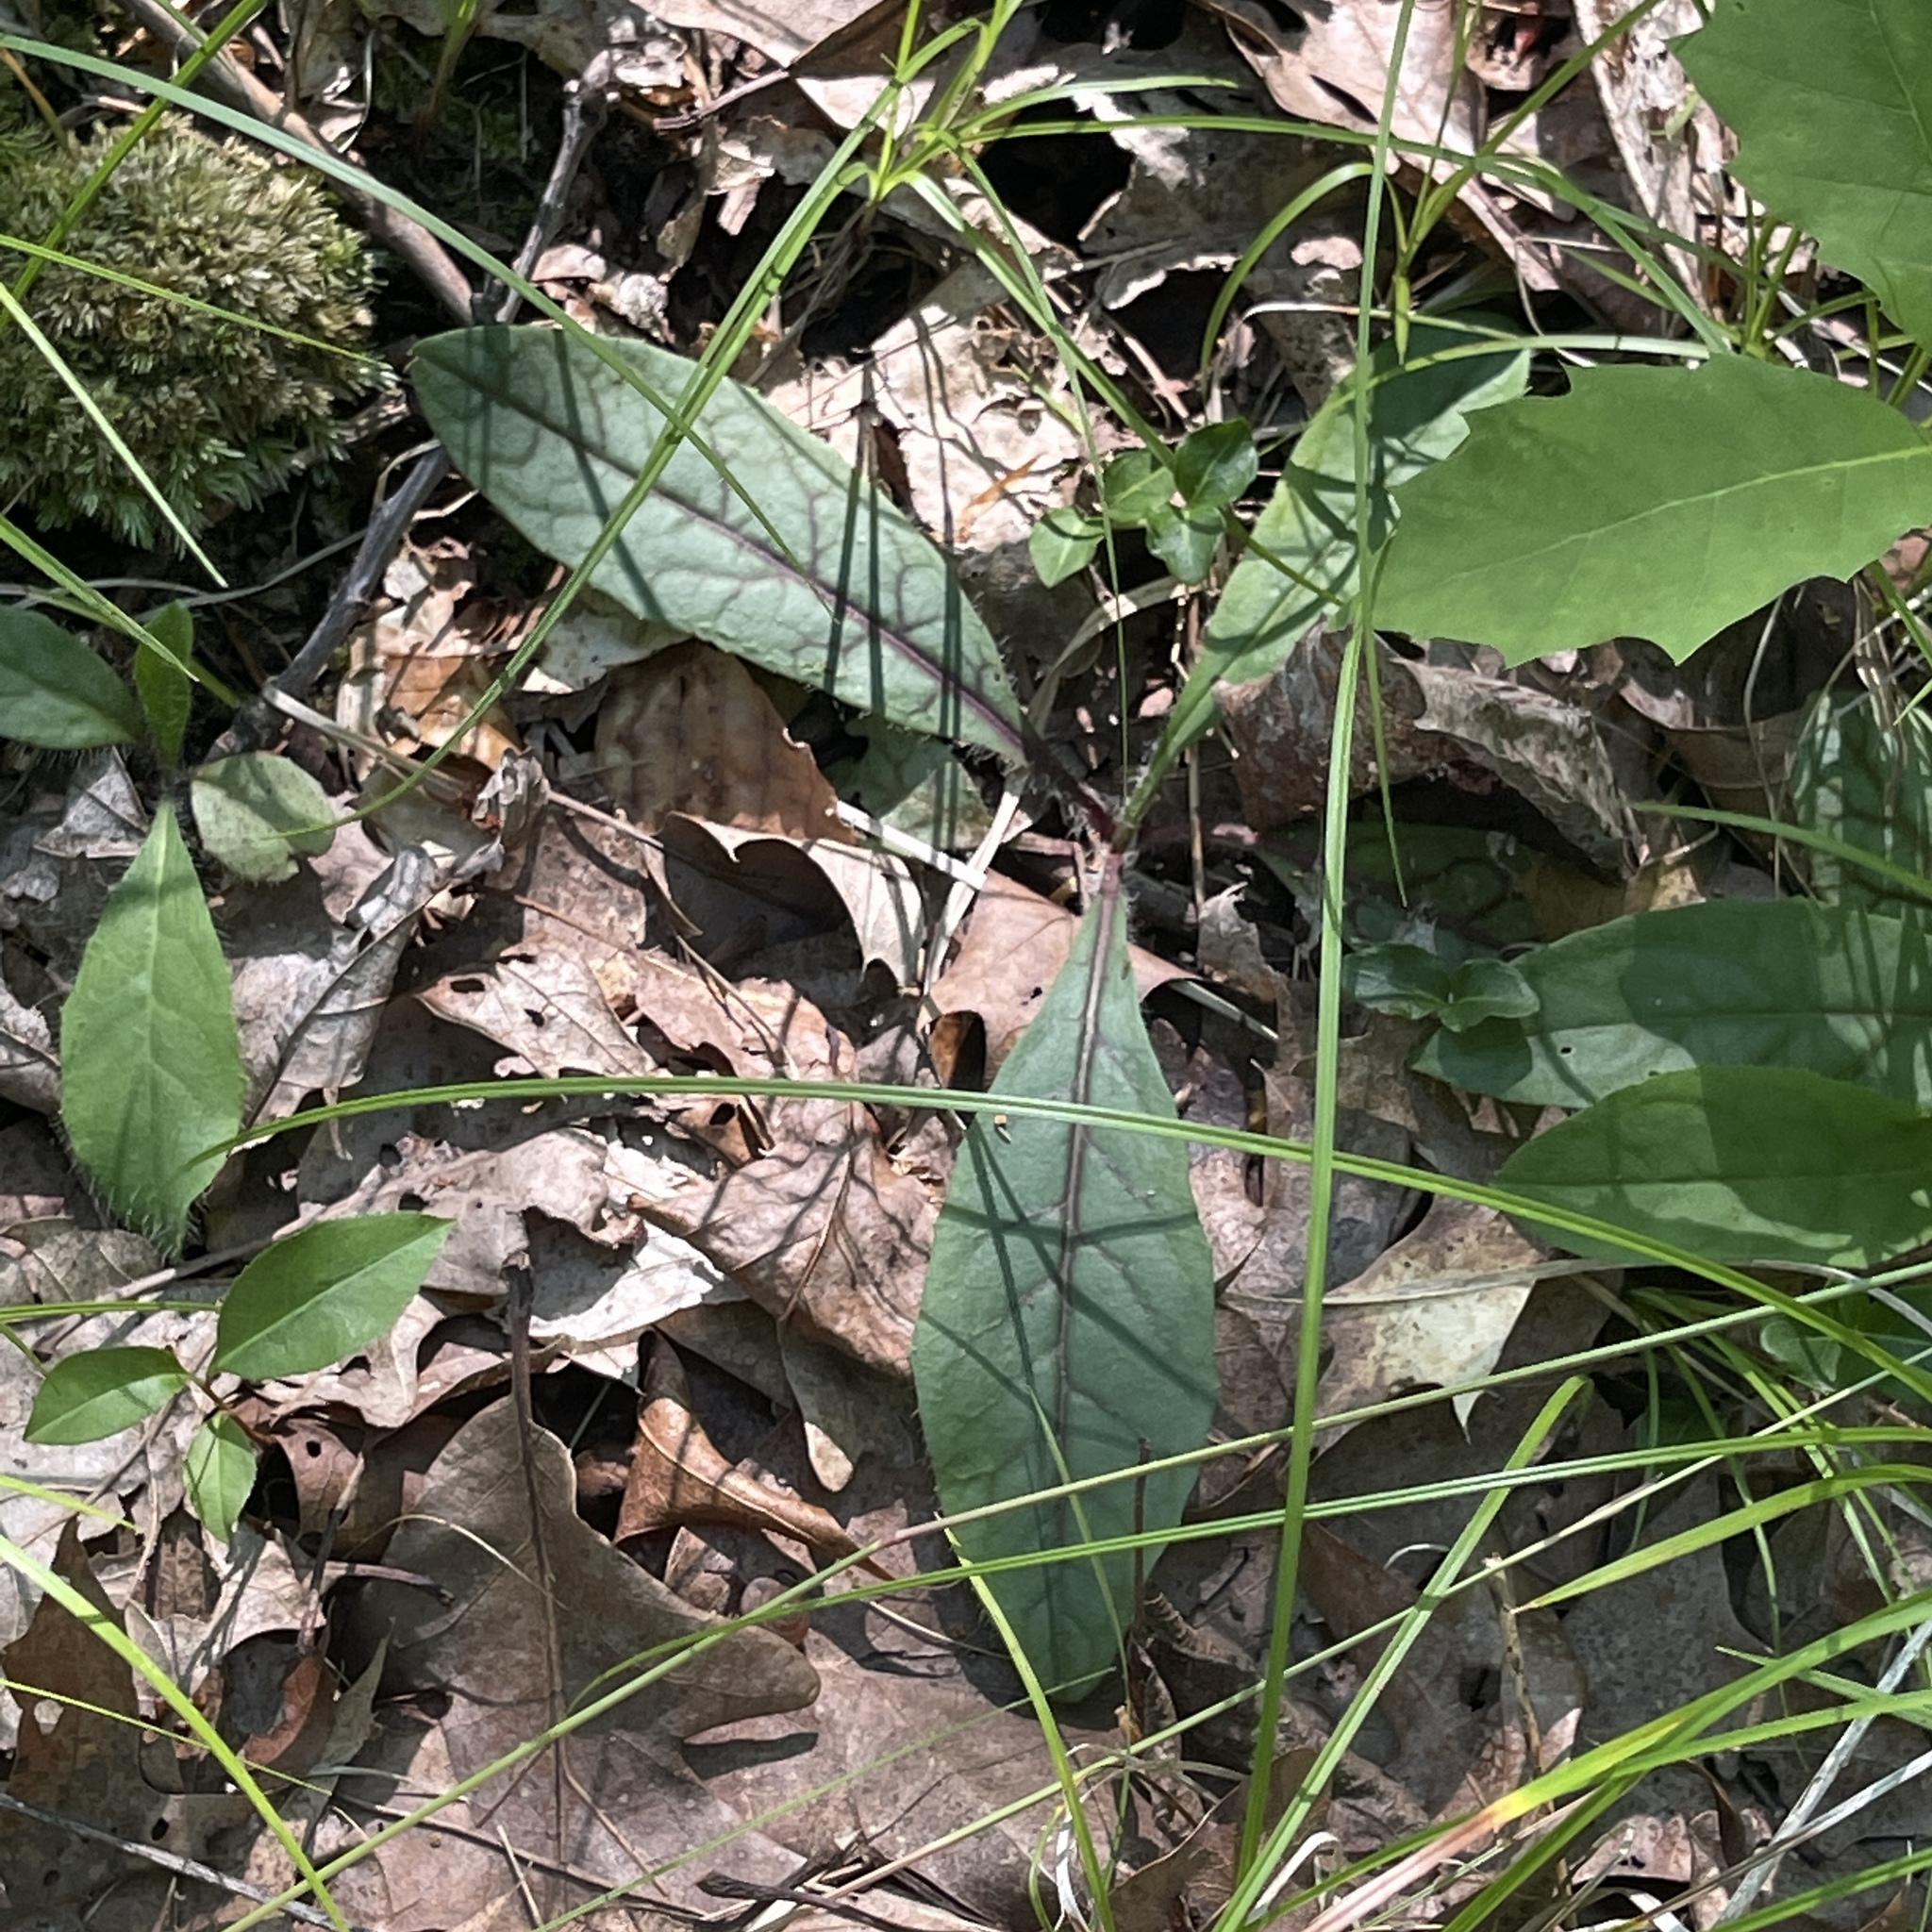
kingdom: Plantae
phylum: Tracheophyta
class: Magnoliopsida
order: Asterales
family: Asteraceae
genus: Hieracium
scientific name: Hieracium venosum
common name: Rattlesnake hawkweed
